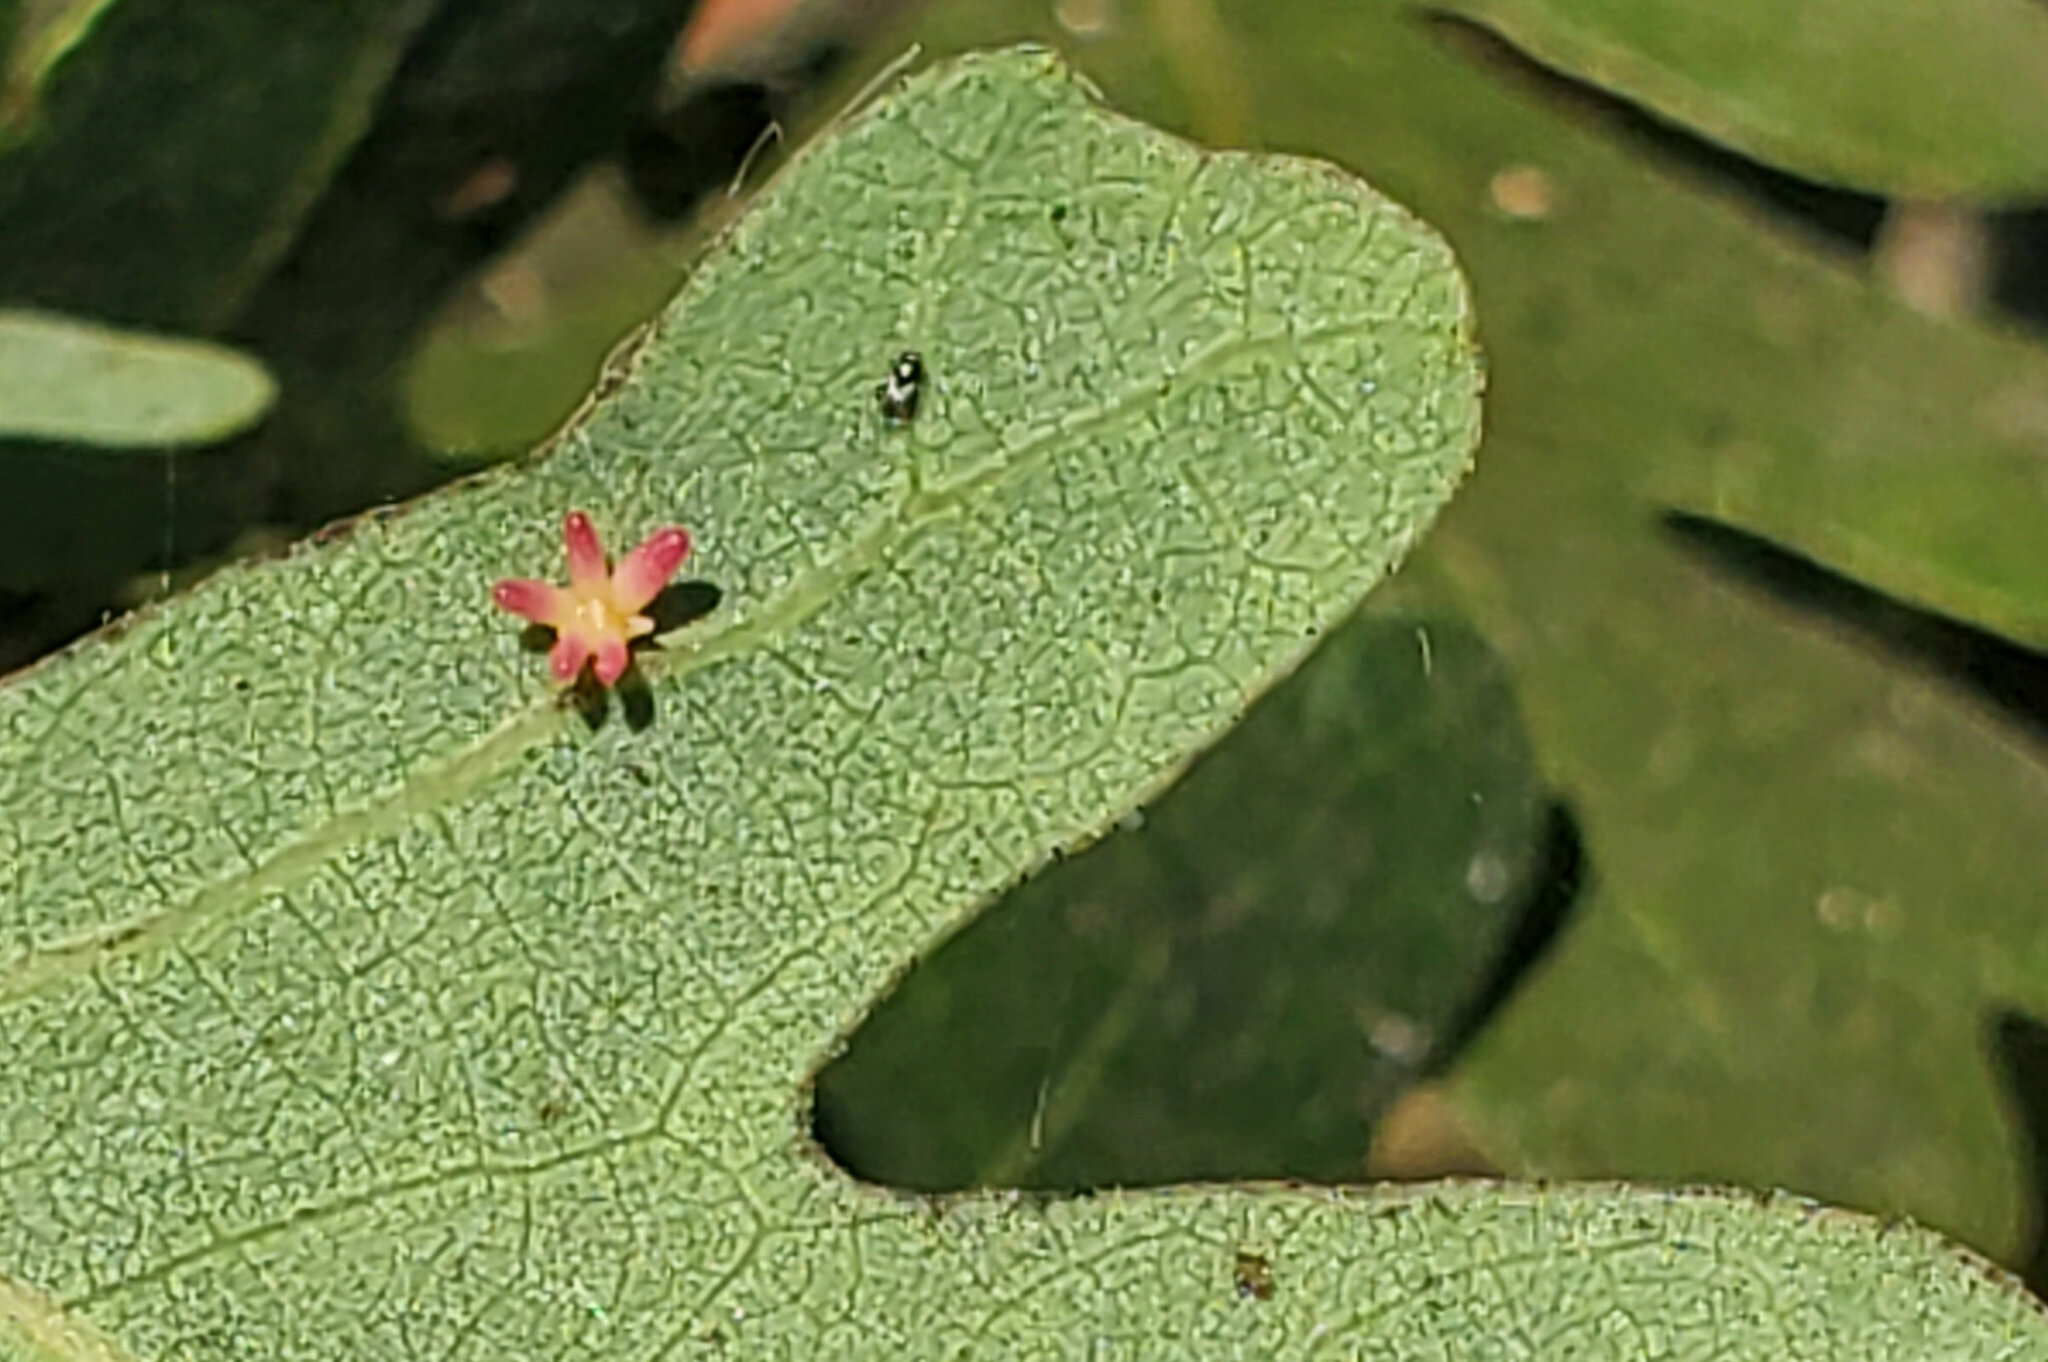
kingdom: Animalia
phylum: Arthropoda
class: Insecta
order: Hymenoptera
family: Cynipidae
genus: Cynips
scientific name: Cynips douglasi
